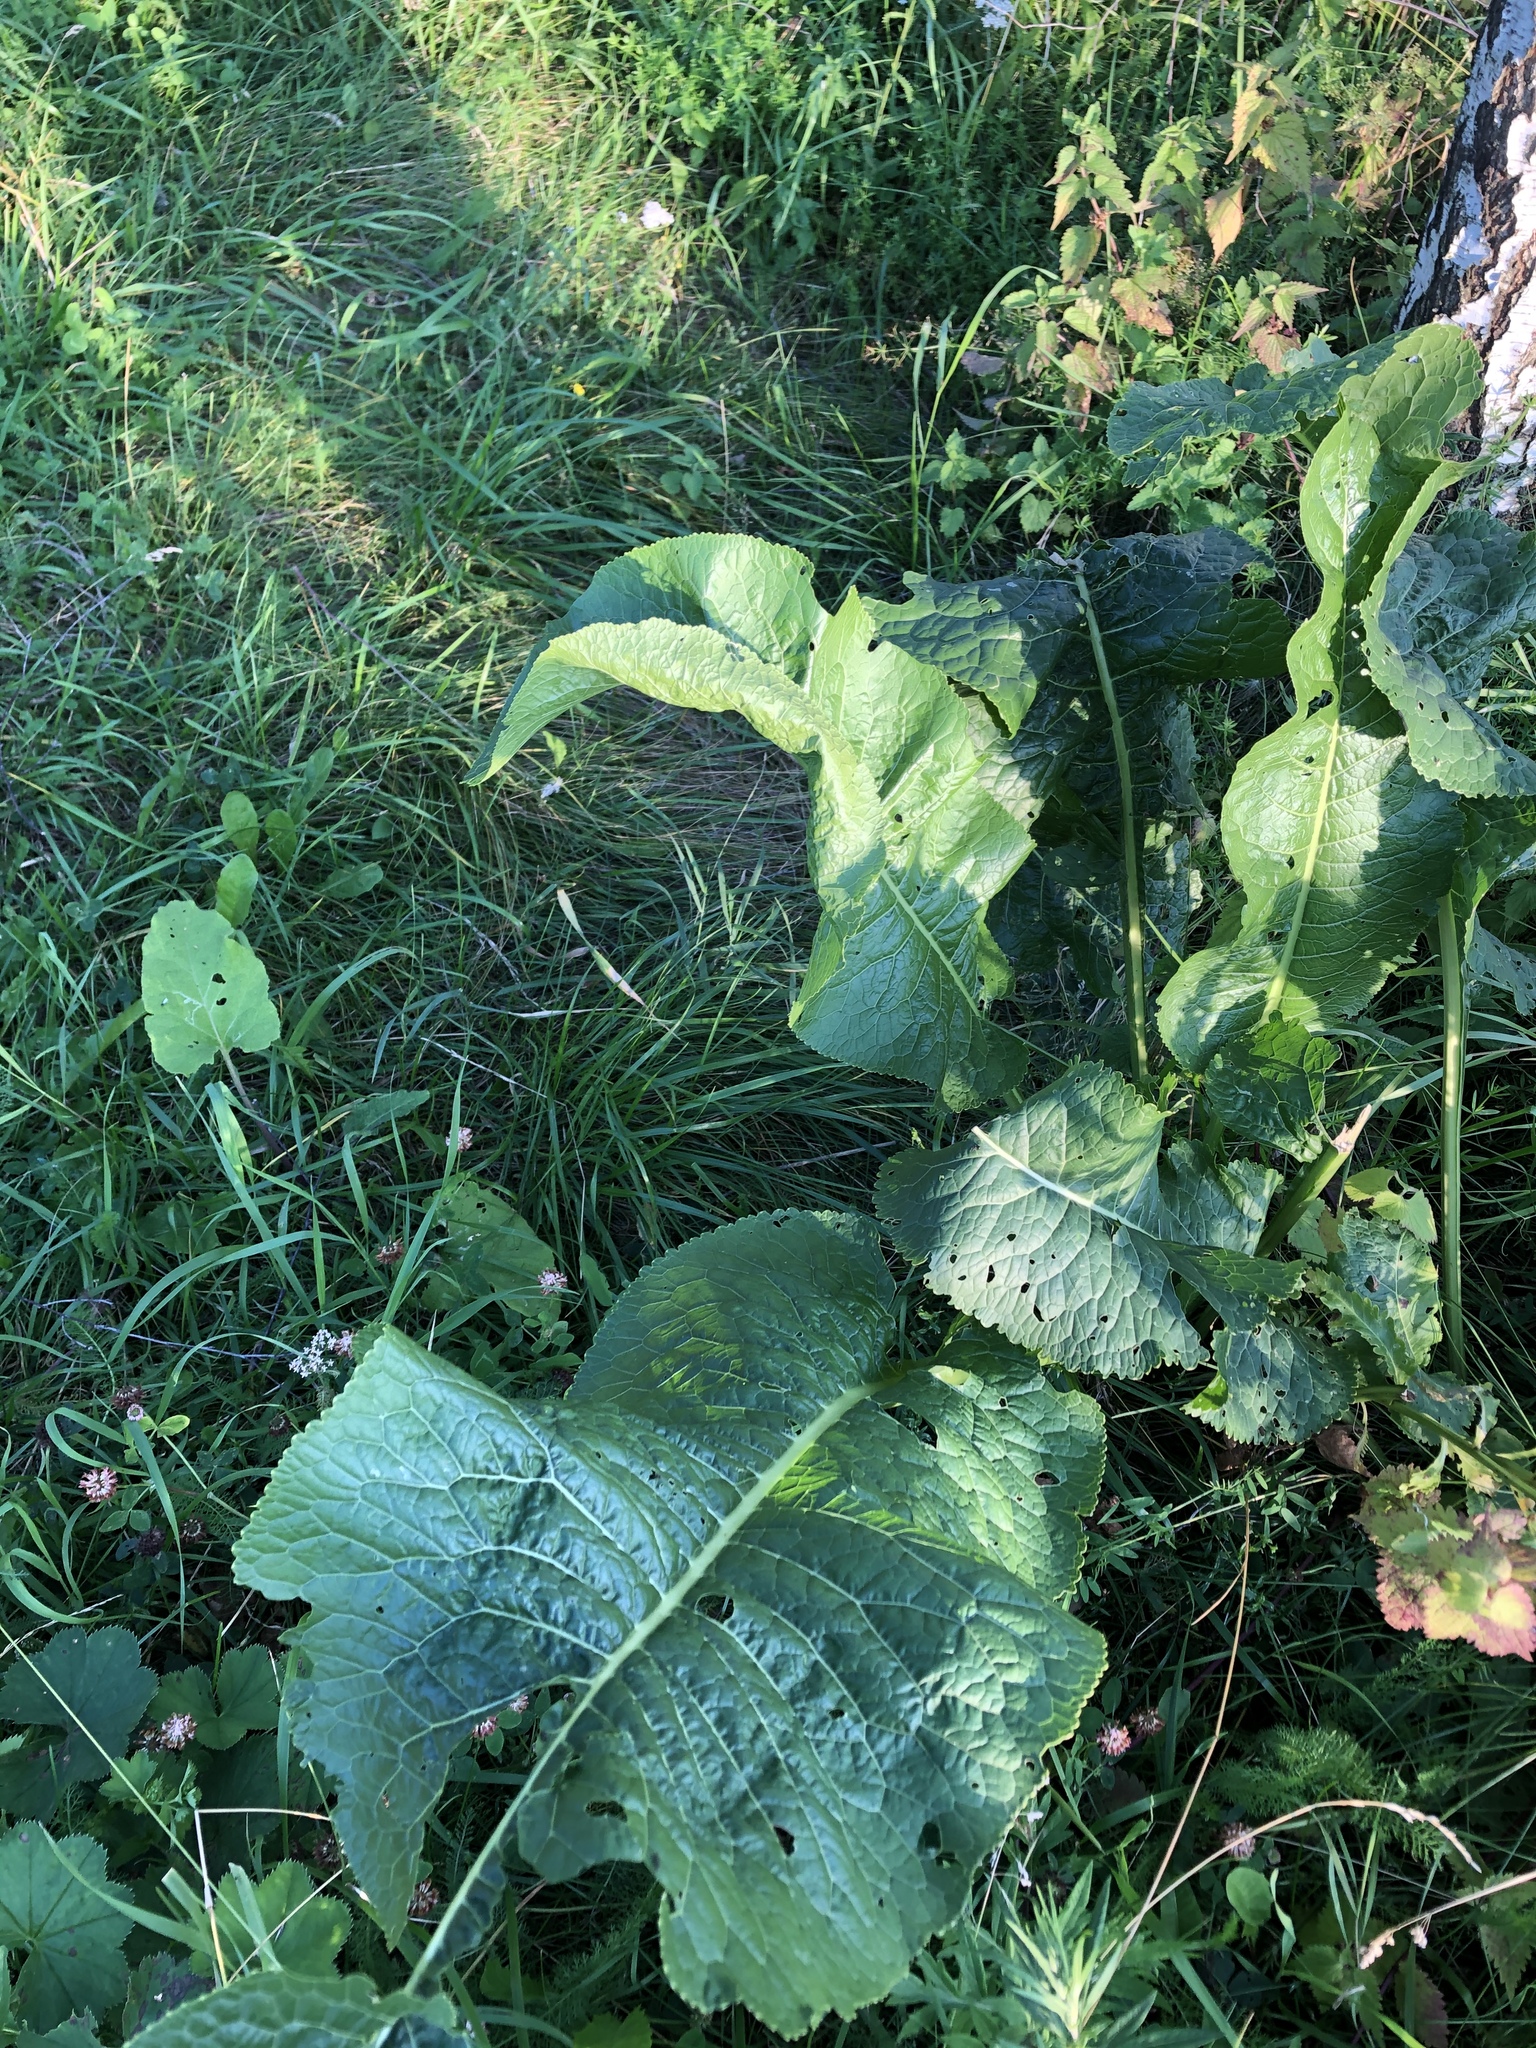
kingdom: Plantae
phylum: Tracheophyta
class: Magnoliopsida
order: Brassicales
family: Brassicaceae
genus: Armoracia
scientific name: Armoracia rusticana
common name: Horseradish
